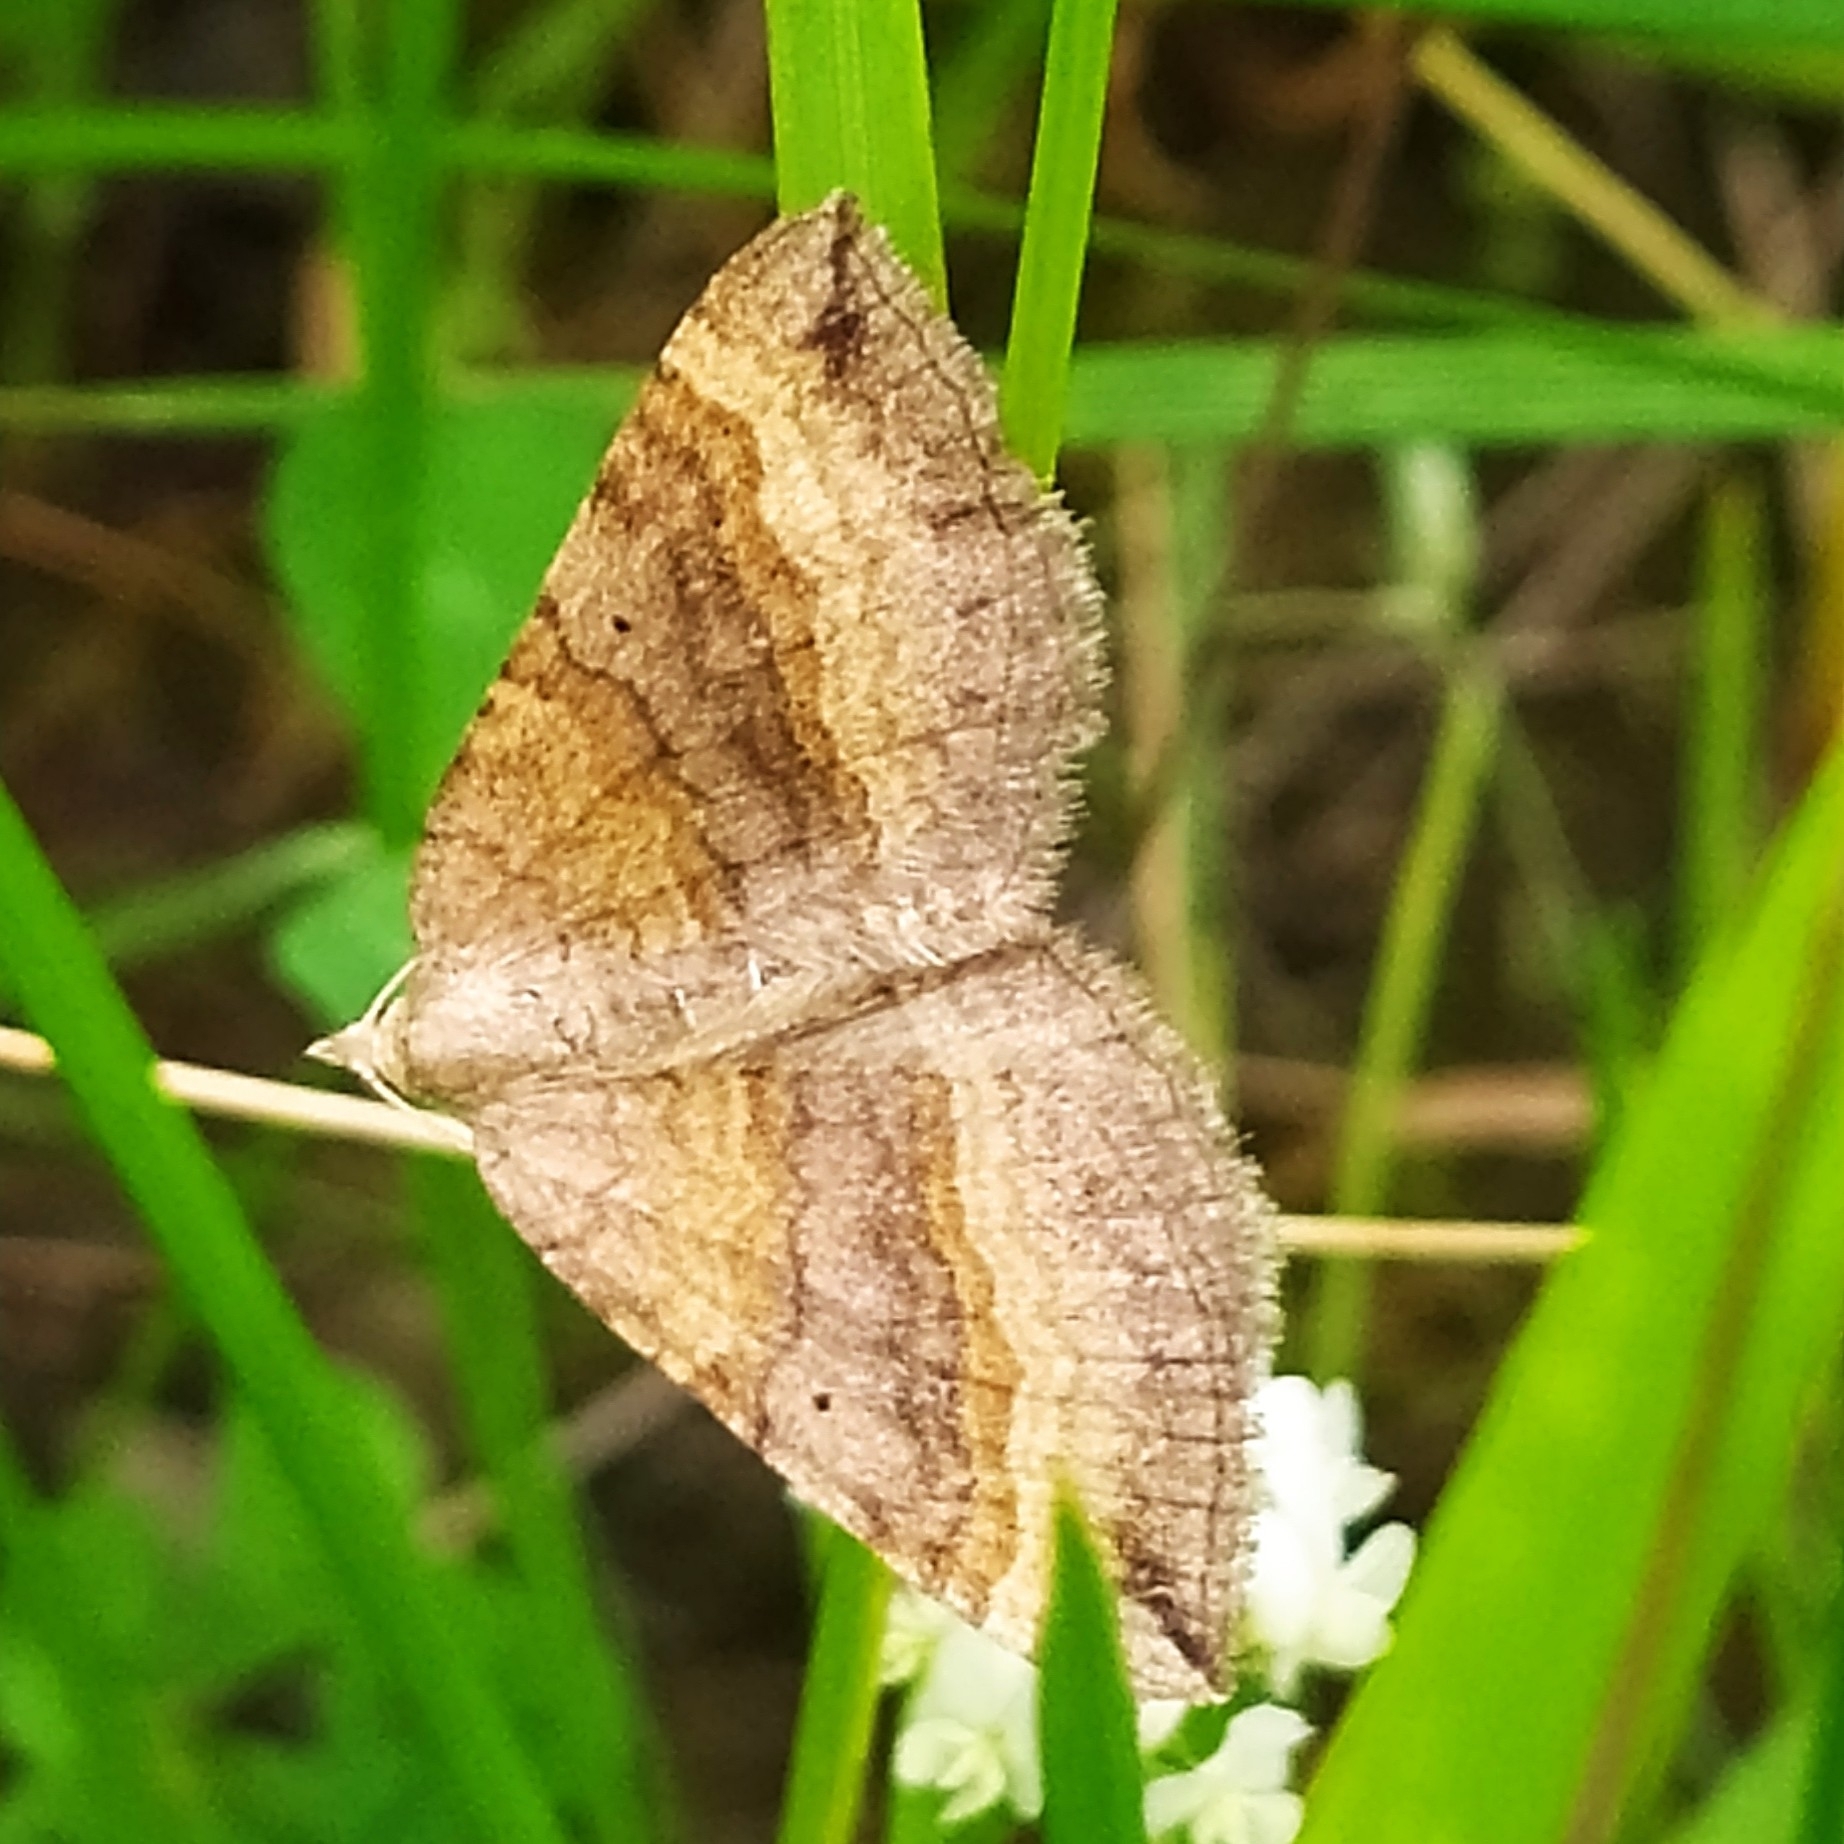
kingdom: Animalia
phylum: Arthropoda
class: Insecta
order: Lepidoptera
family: Geometridae
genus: Scotopteryx
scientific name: Scotopteryx chenopodiata
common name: Shaded broad-bar
